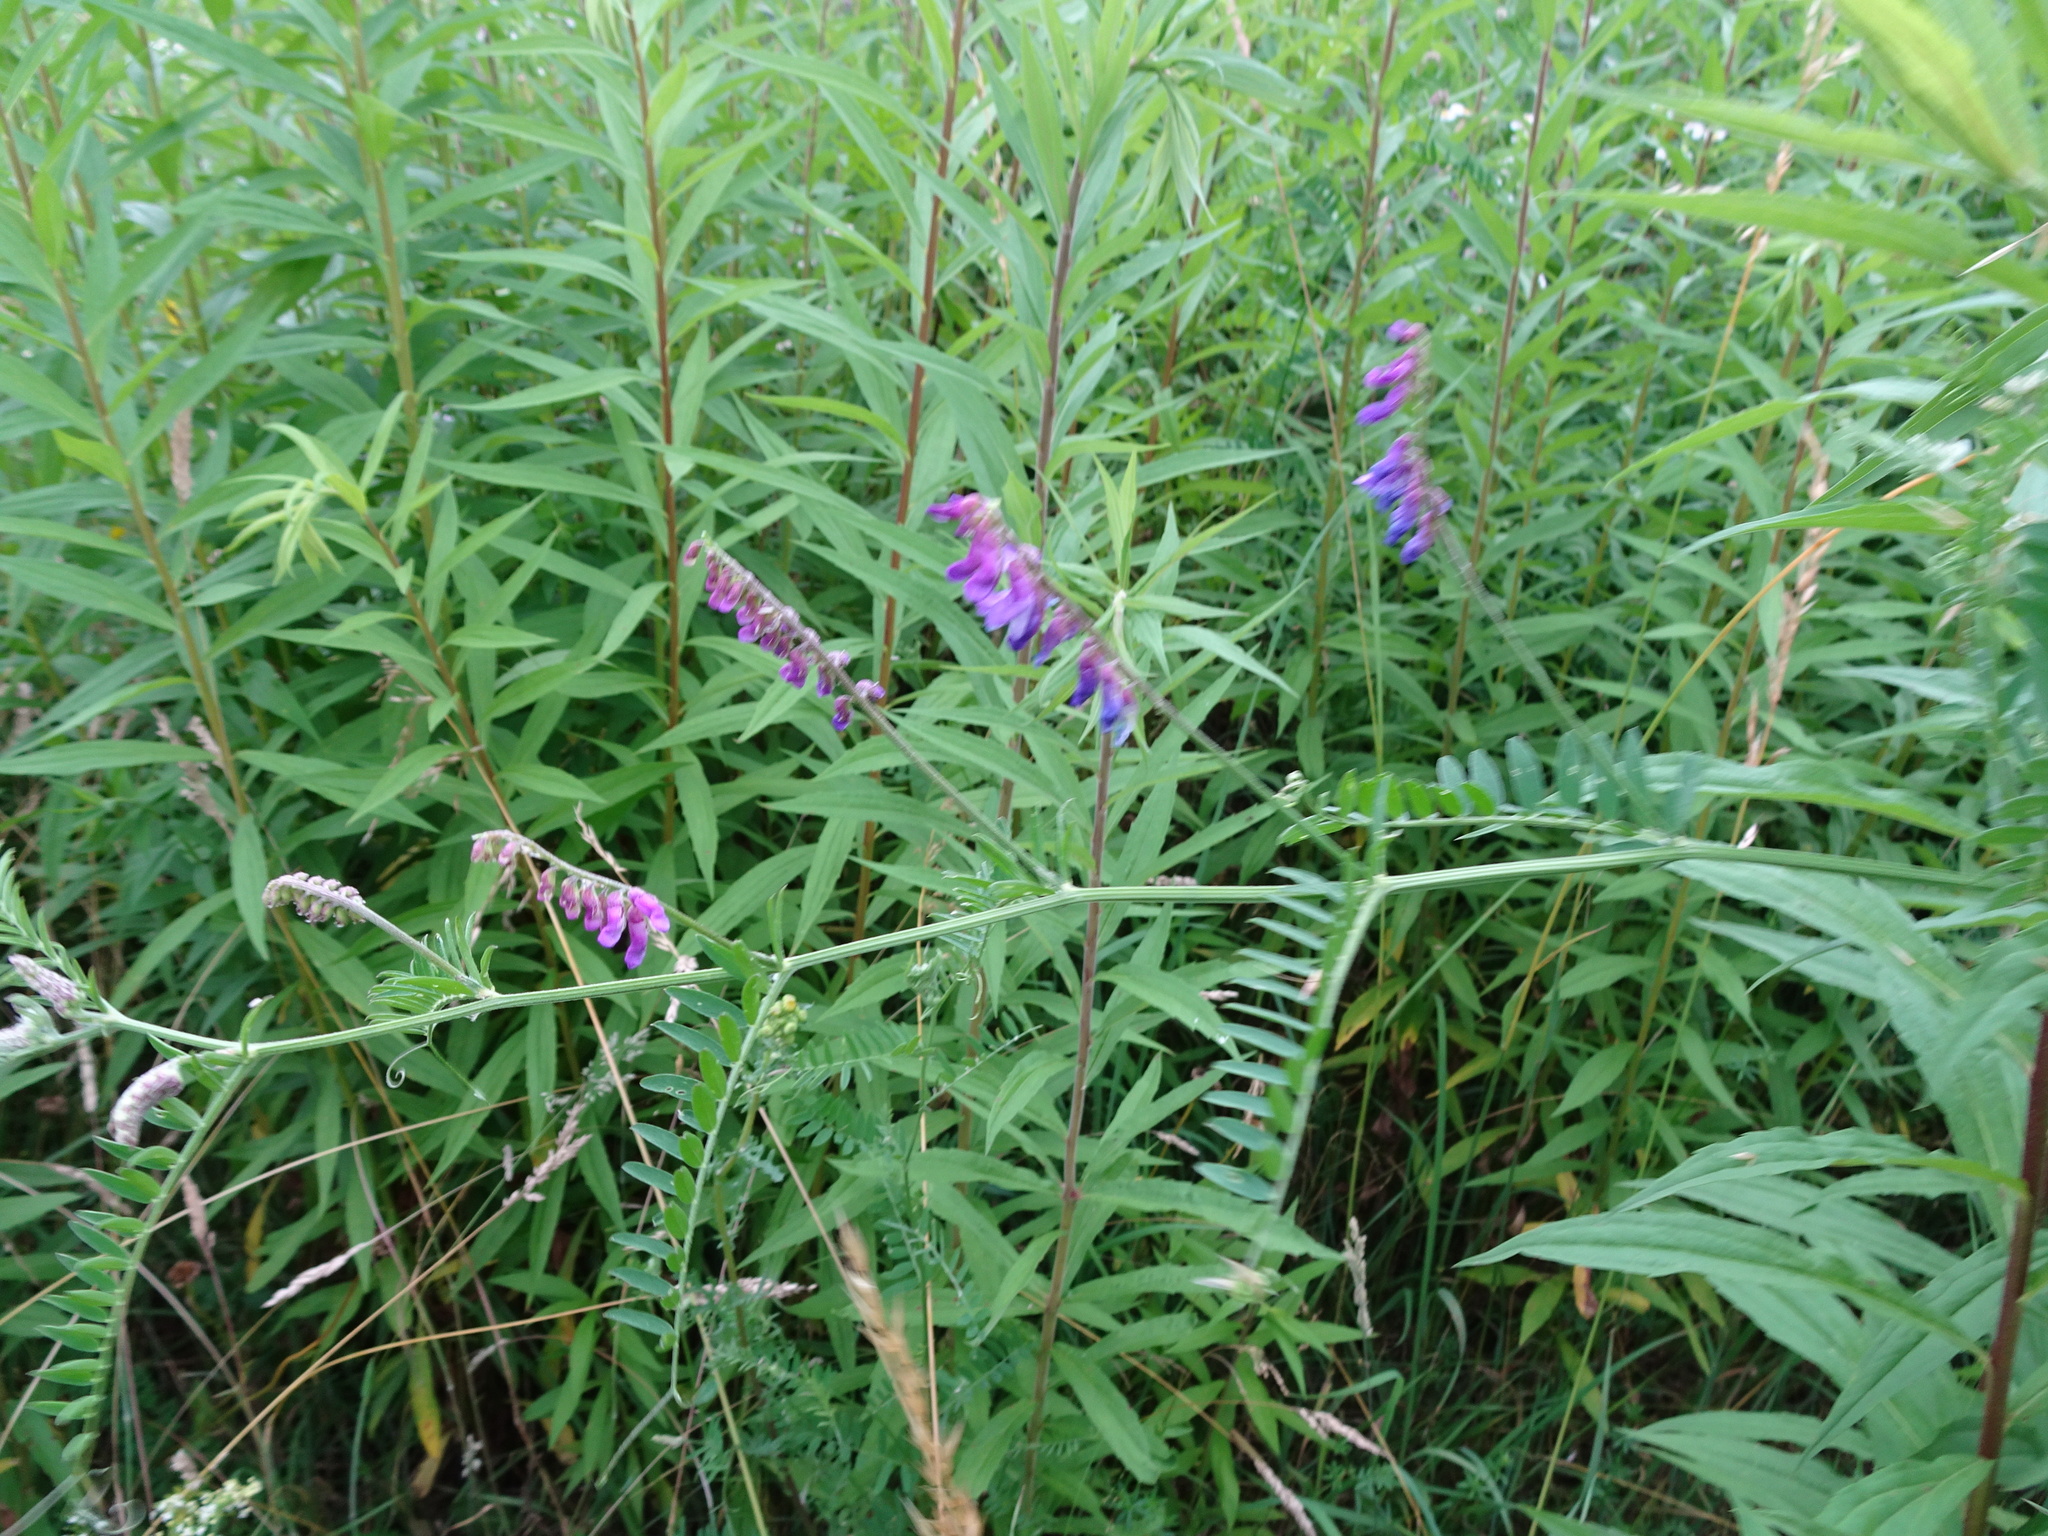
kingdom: Plantae
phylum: Tracheophyta
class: Magnoliopsida
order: Fabales
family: Fabaceae
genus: Vicia
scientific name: Vicia cracca
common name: Bird vetch
